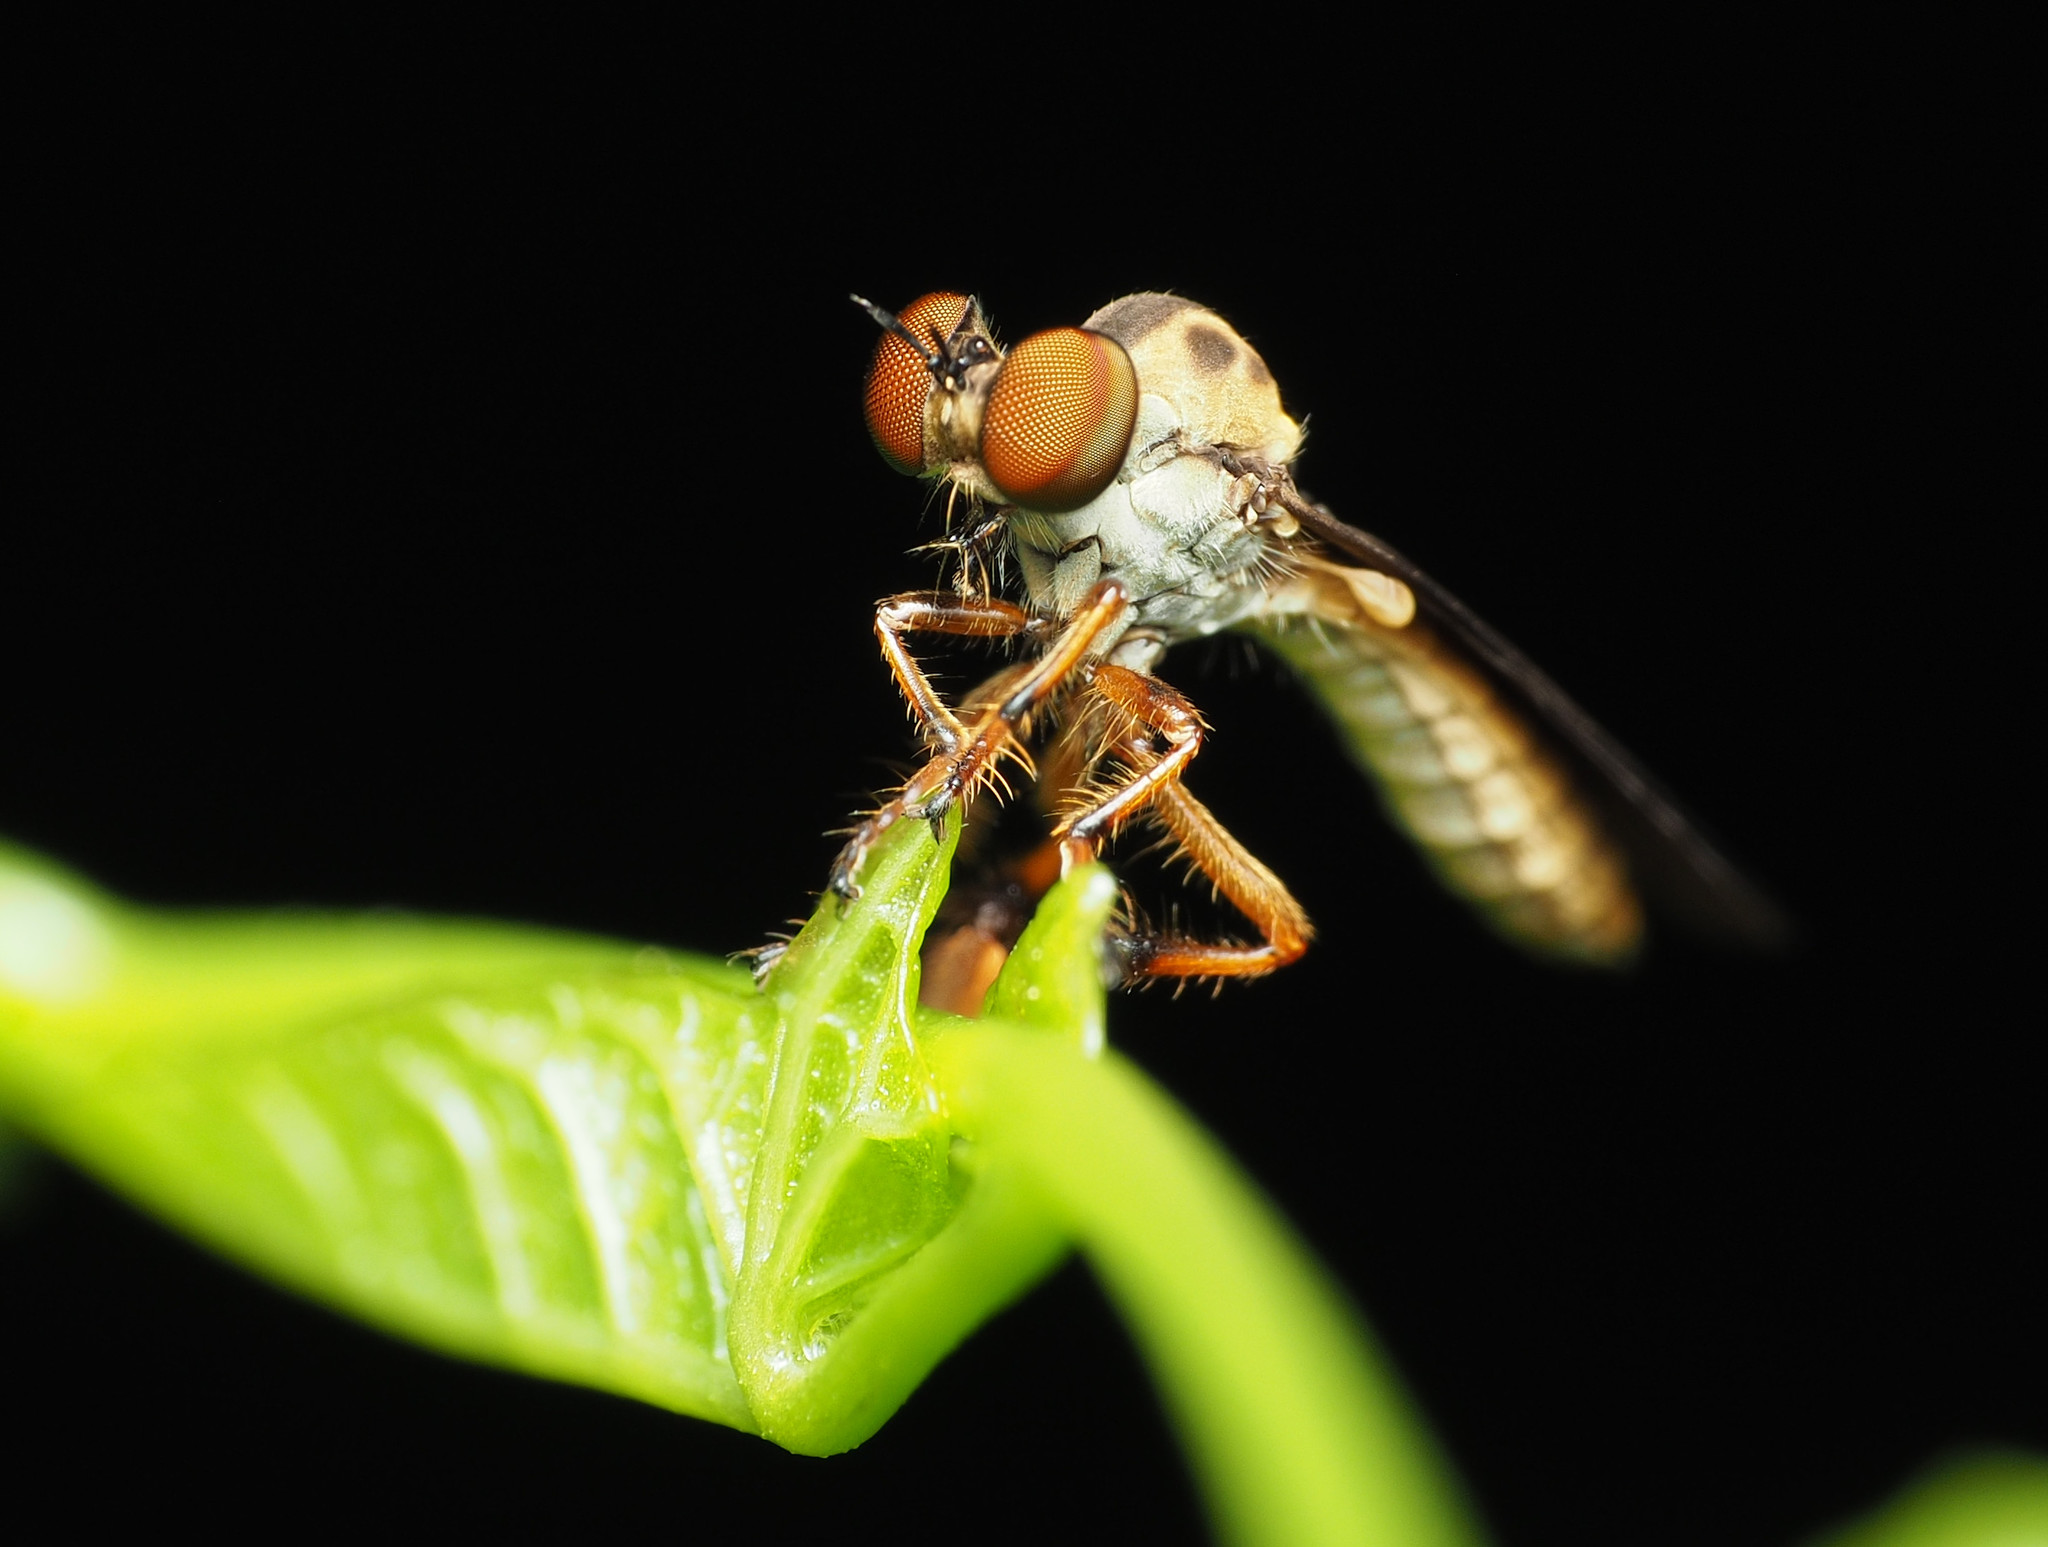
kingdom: Animalia
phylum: Arthropoda
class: Insecta
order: Diptera
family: Asilidae
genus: Holcocephala
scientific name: Holcocephala
